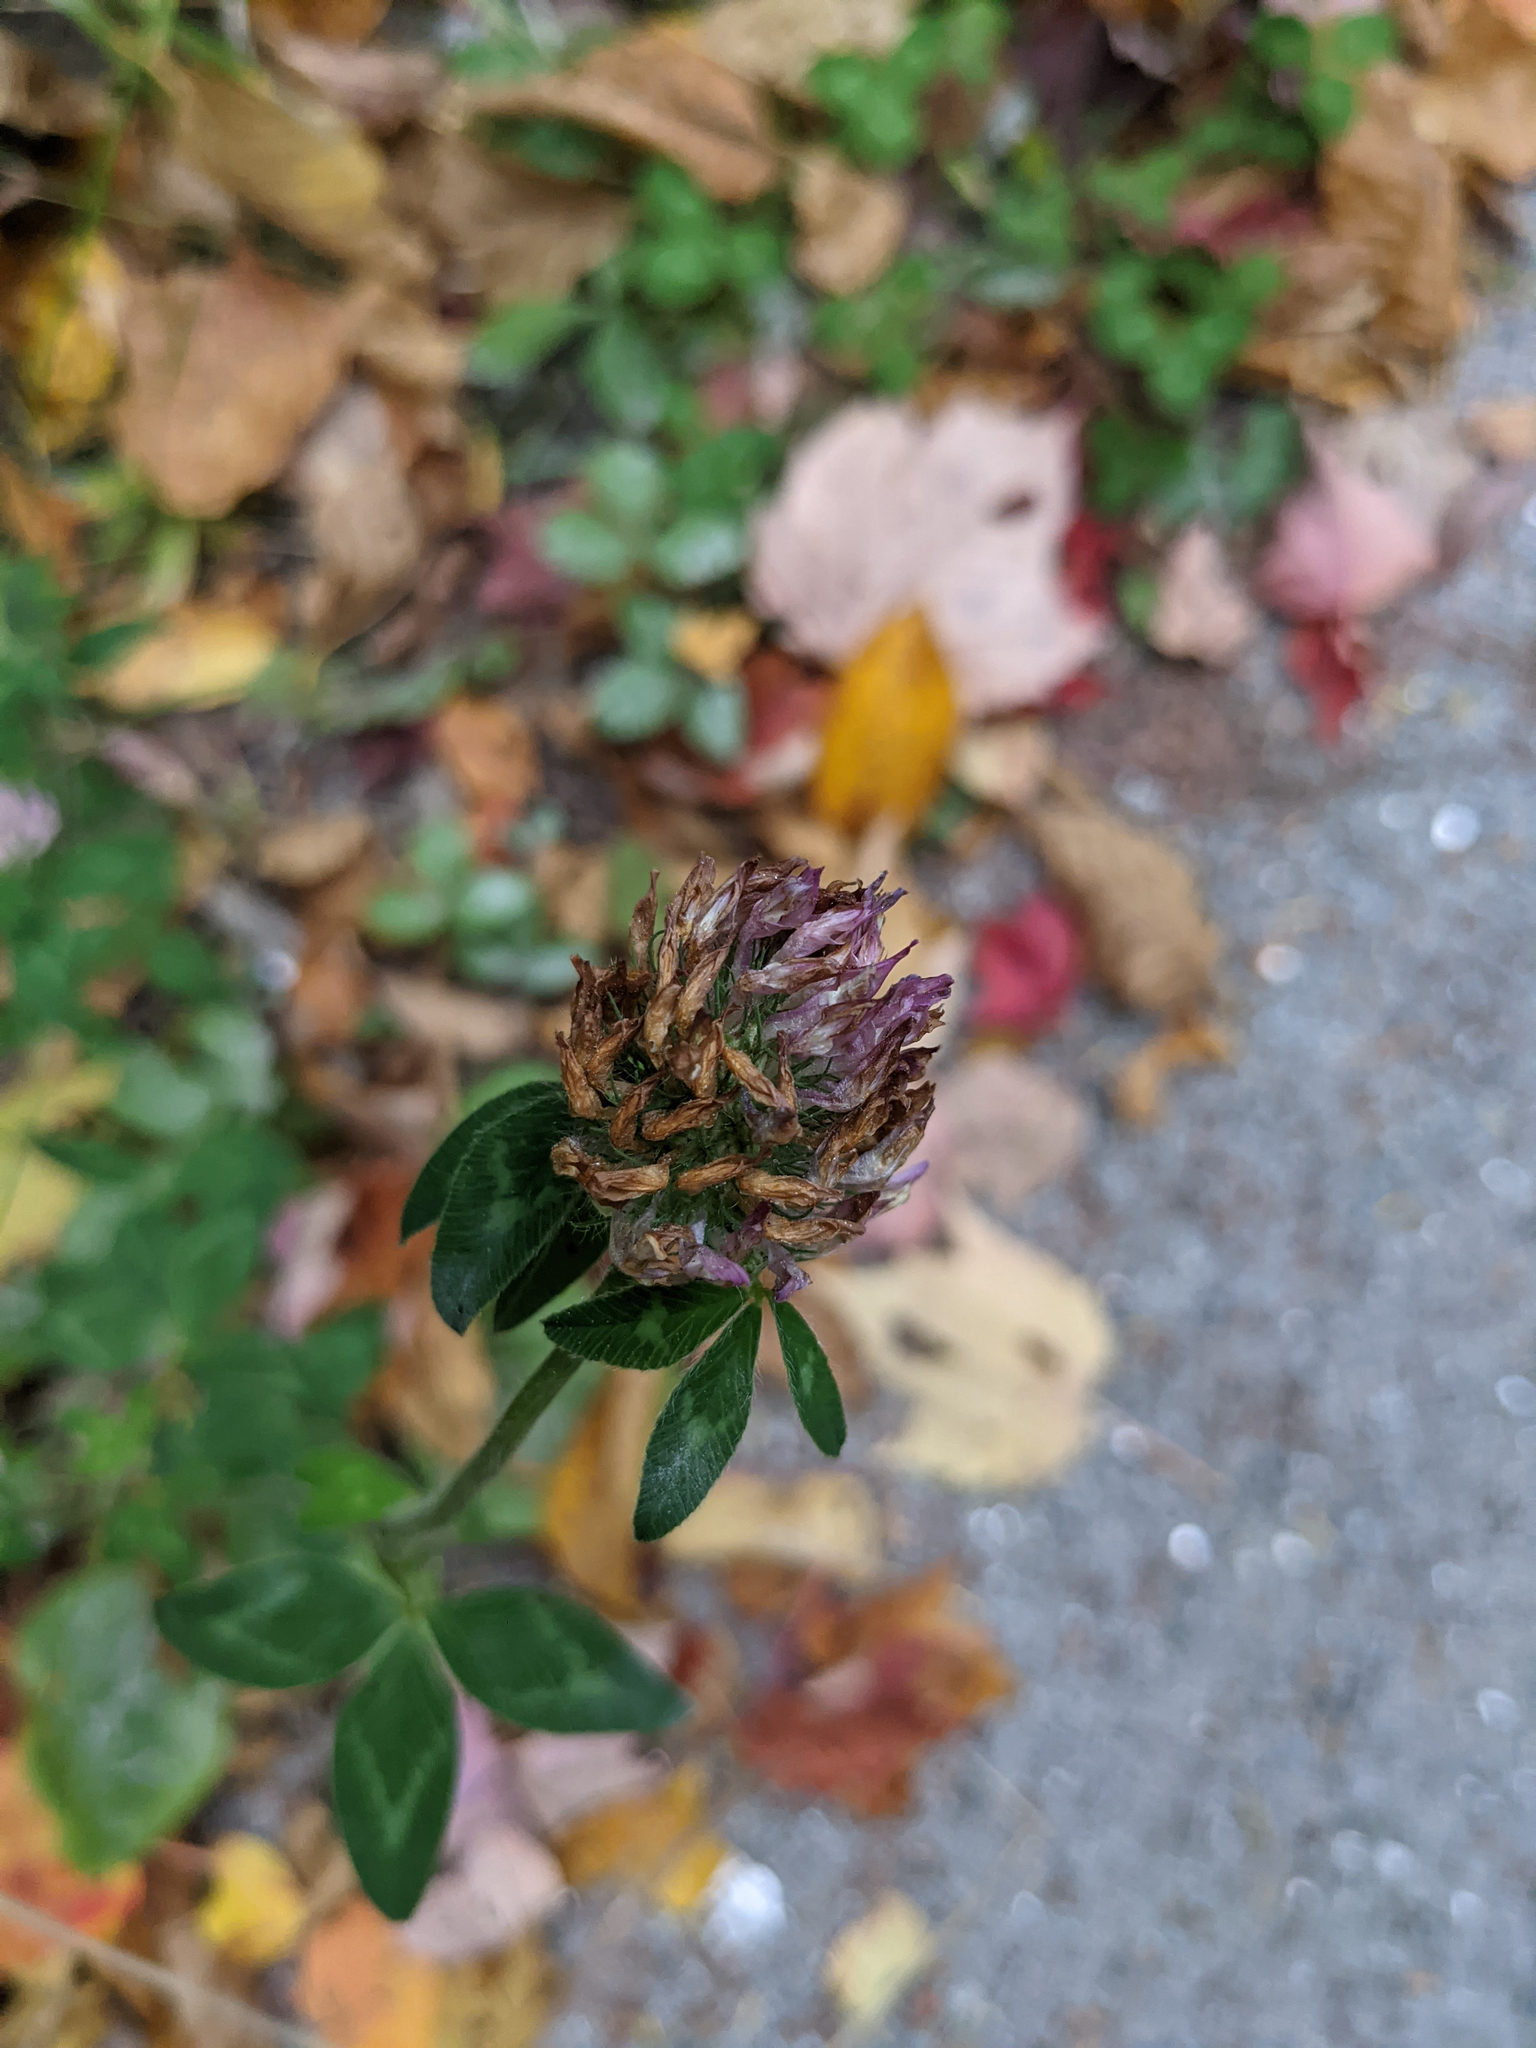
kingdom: Plantae
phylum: Tracheophyta
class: Magnoliopsida
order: Fabales
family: Fabaceae
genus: Trifolium
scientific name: Trifolium pratense
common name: Red clover
